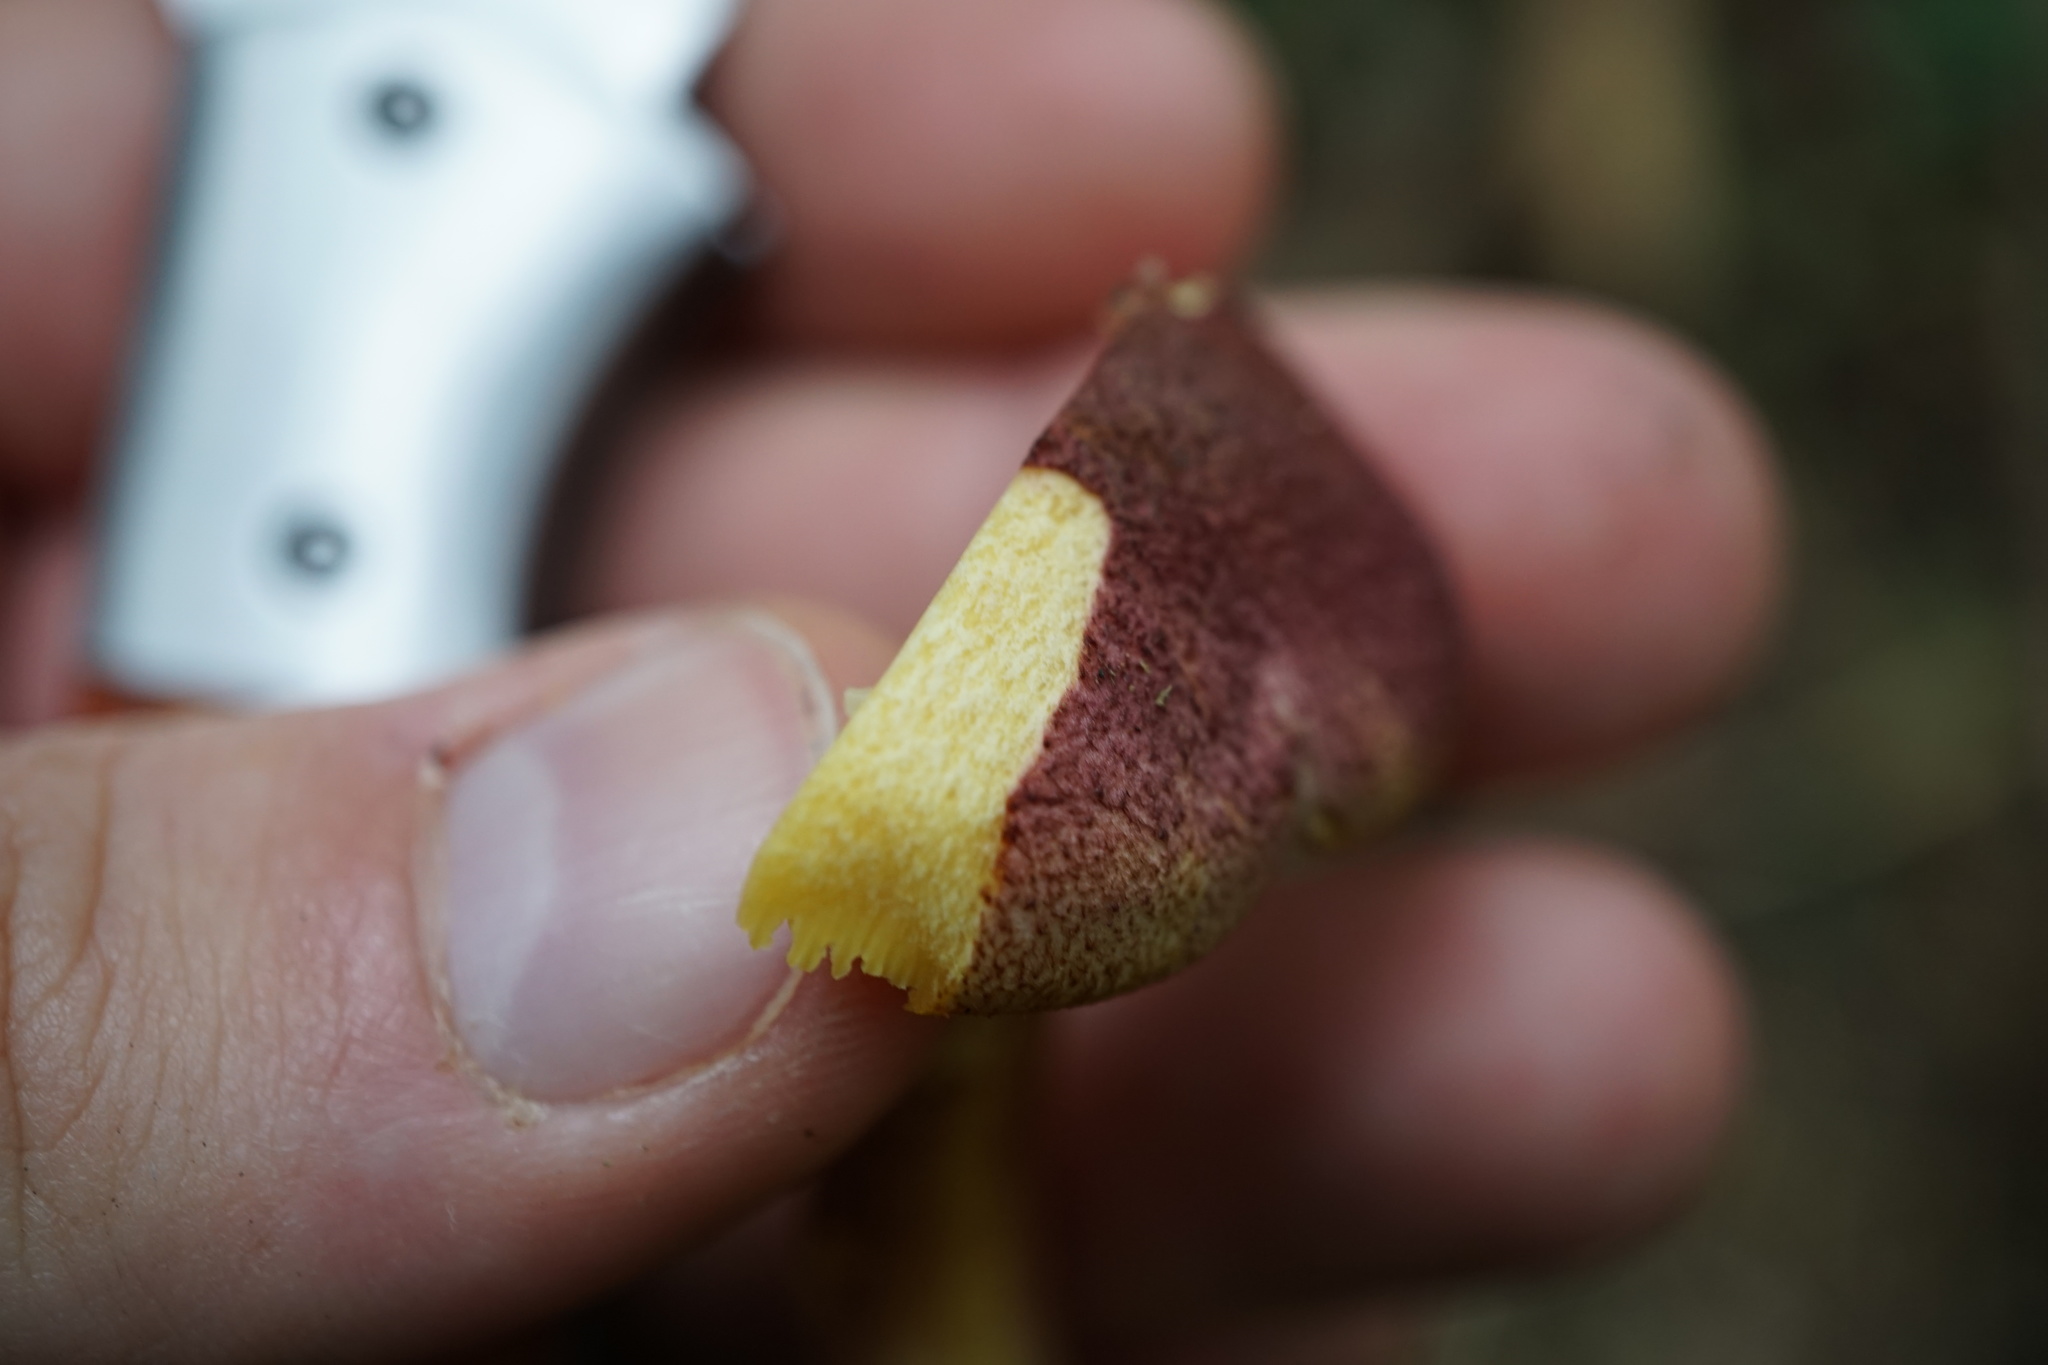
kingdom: Fungi
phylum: Basidiomycota
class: Agaricomycetes
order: Agaricales
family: Tricholomataceae
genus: Tricholomopsis
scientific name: Tricholomopsis rutilans
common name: Plums and custard
